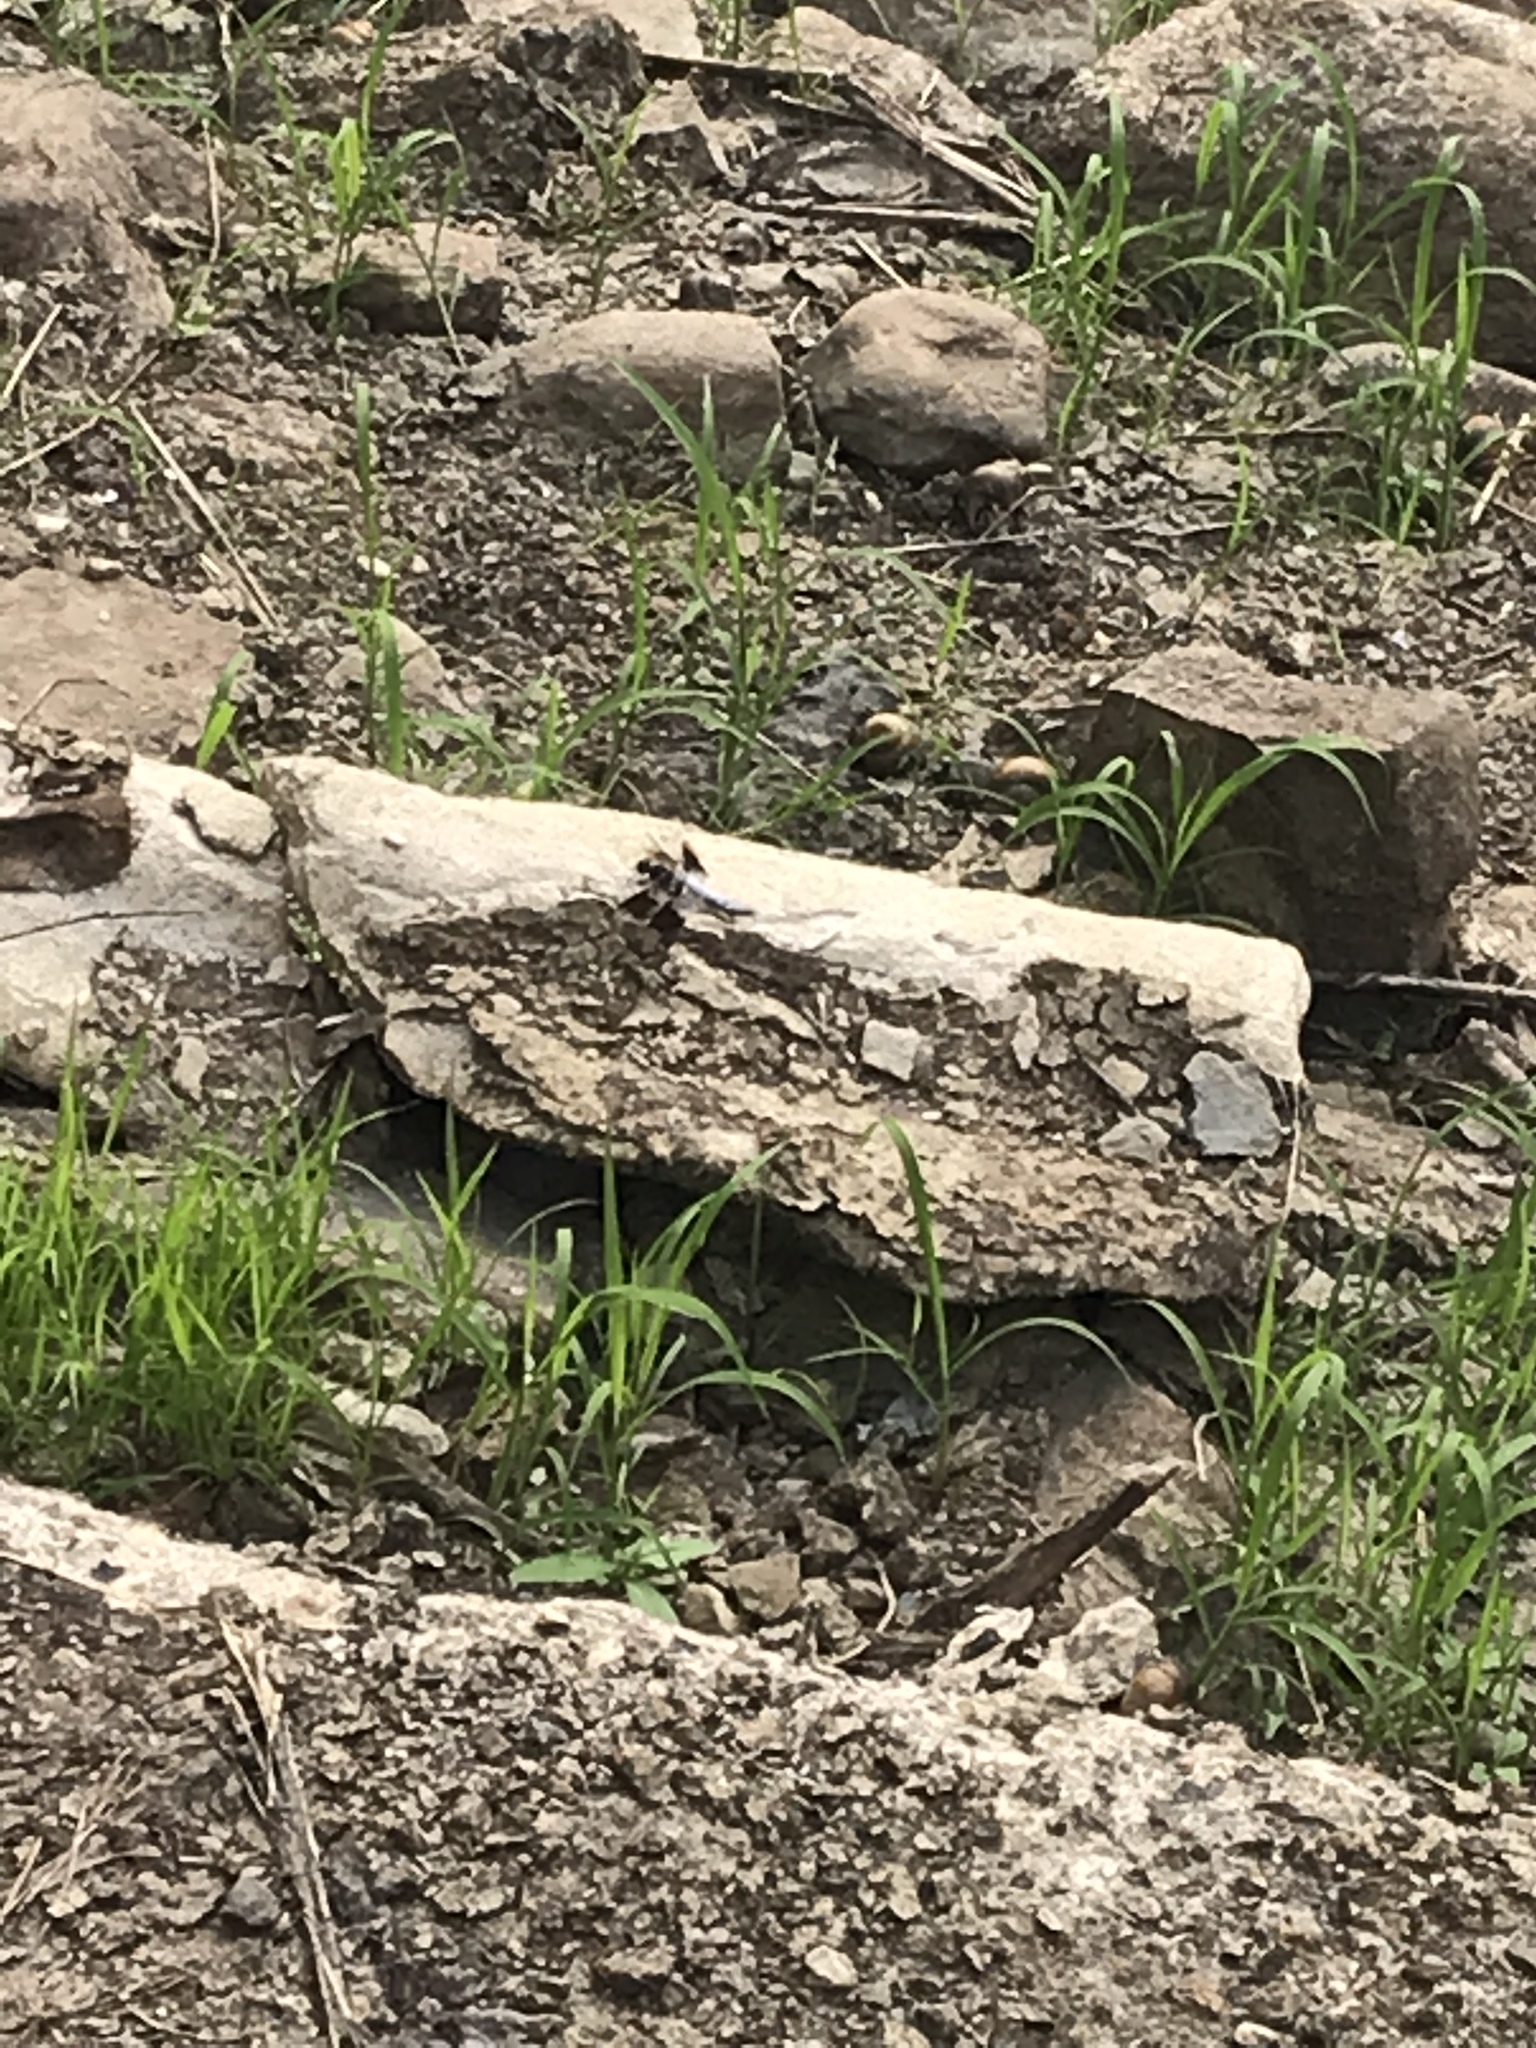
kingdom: Animalia
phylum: Arthropoda
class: Insecta
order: Odonata
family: Libellulidae
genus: Plathemis
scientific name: Plathemis lydia
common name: Common whitetail
